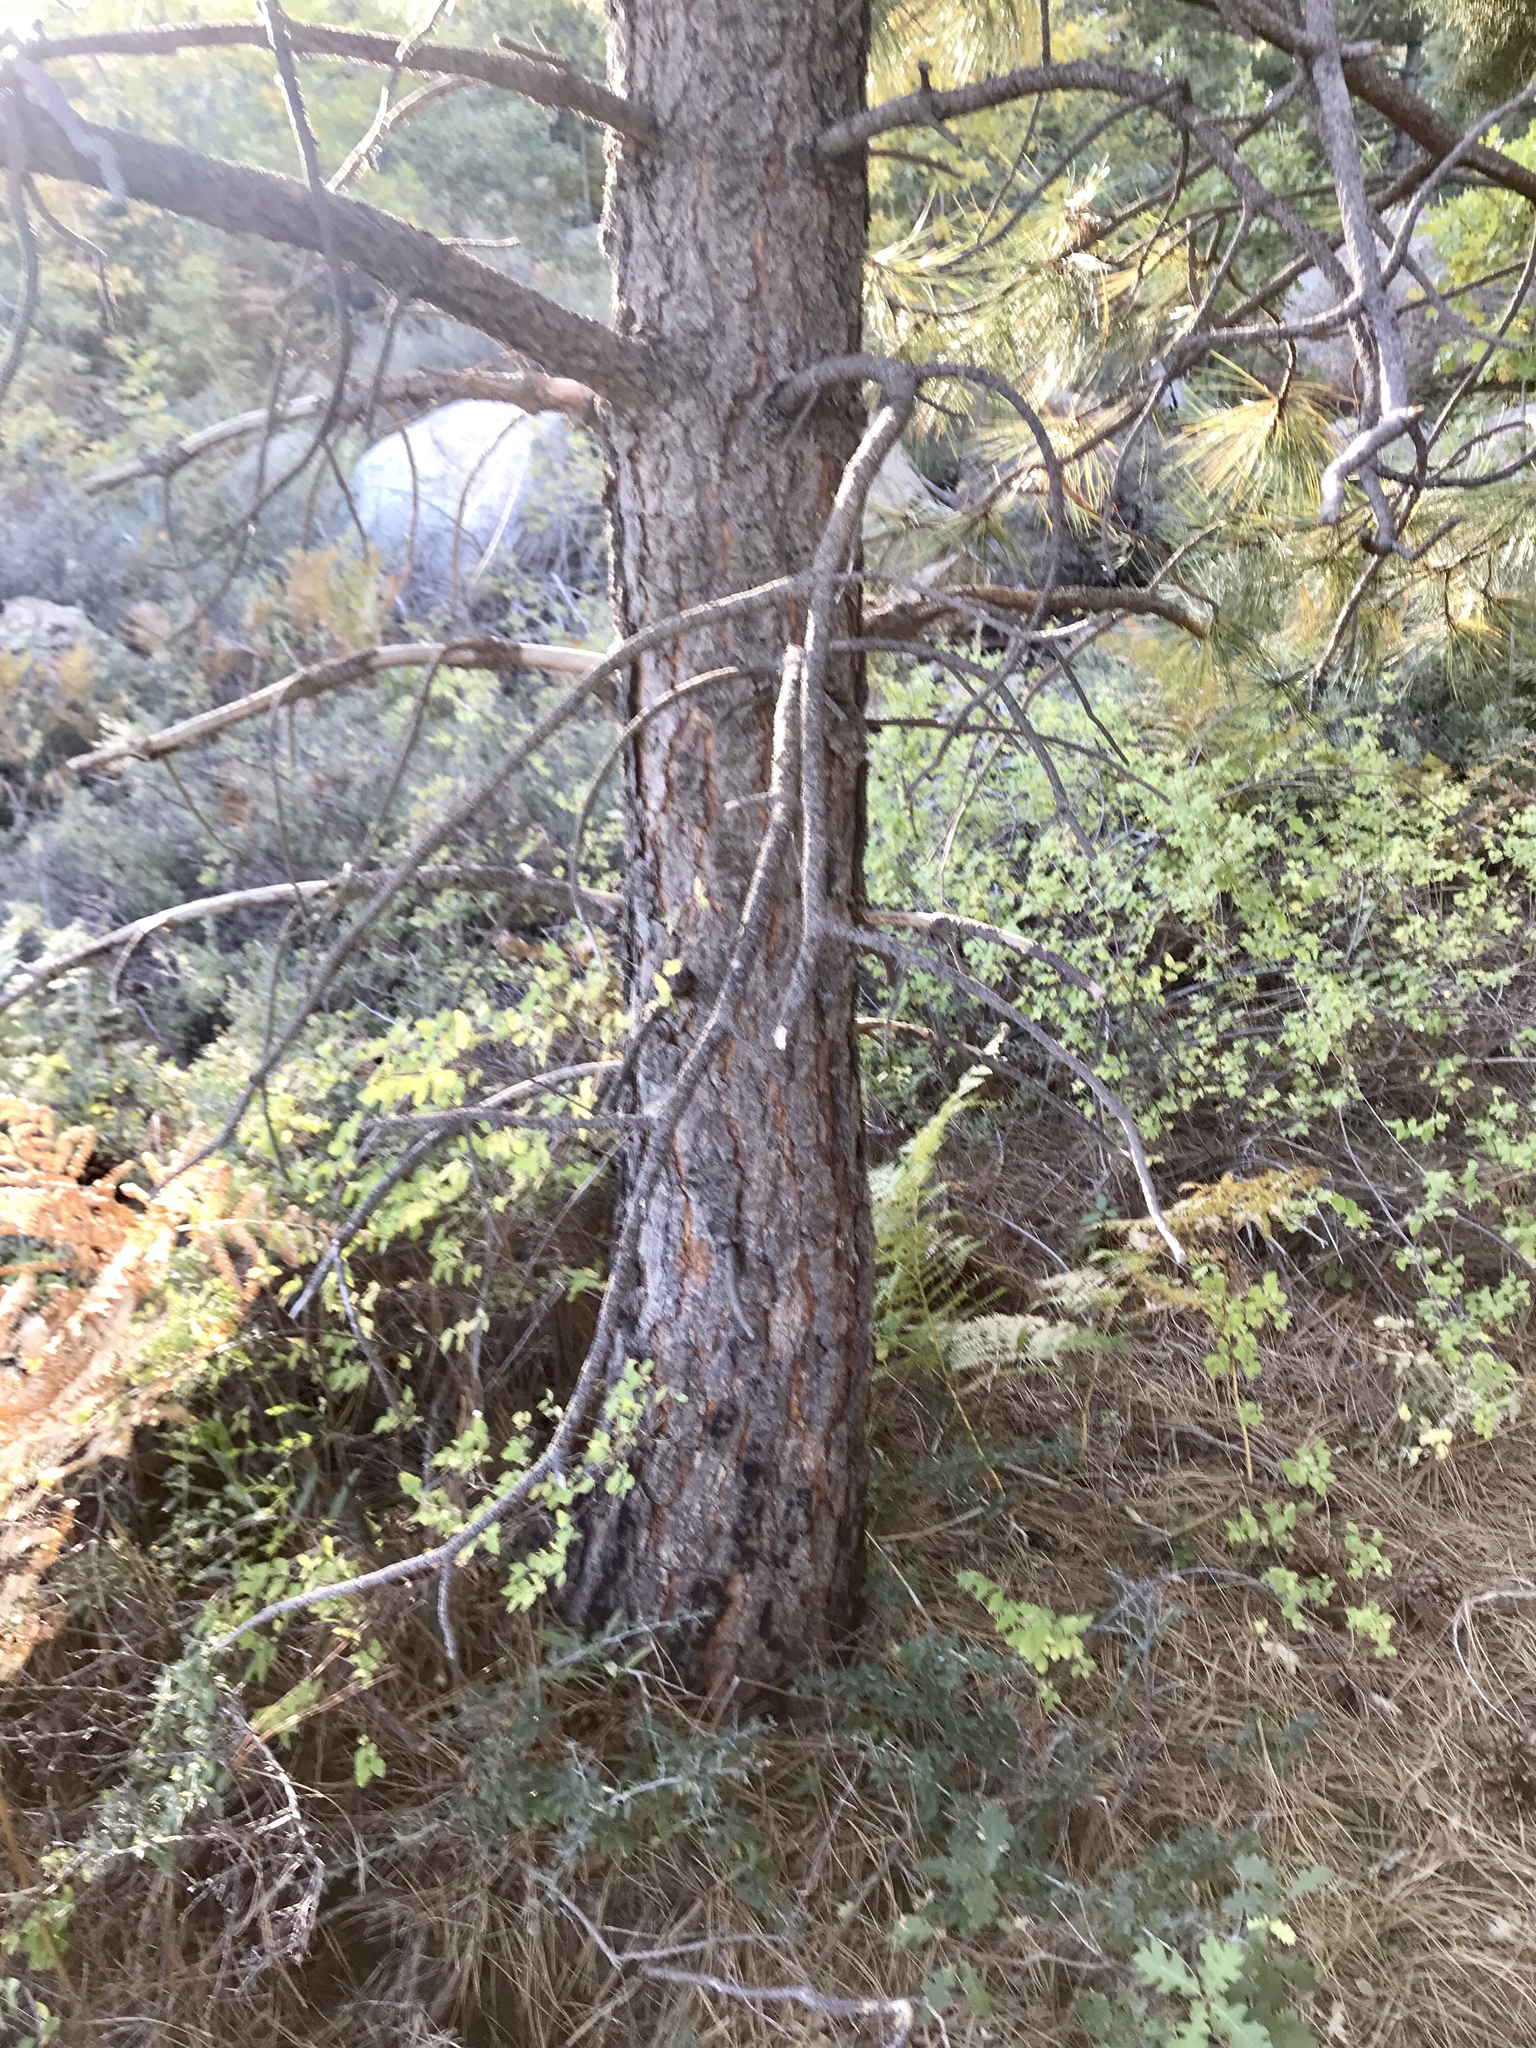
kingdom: Plantae
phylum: Tracheophyta
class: Pinopsida
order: Pinales
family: Pinaceae
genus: Pinus
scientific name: Pinus ponderosa
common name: Western yellow-pine
